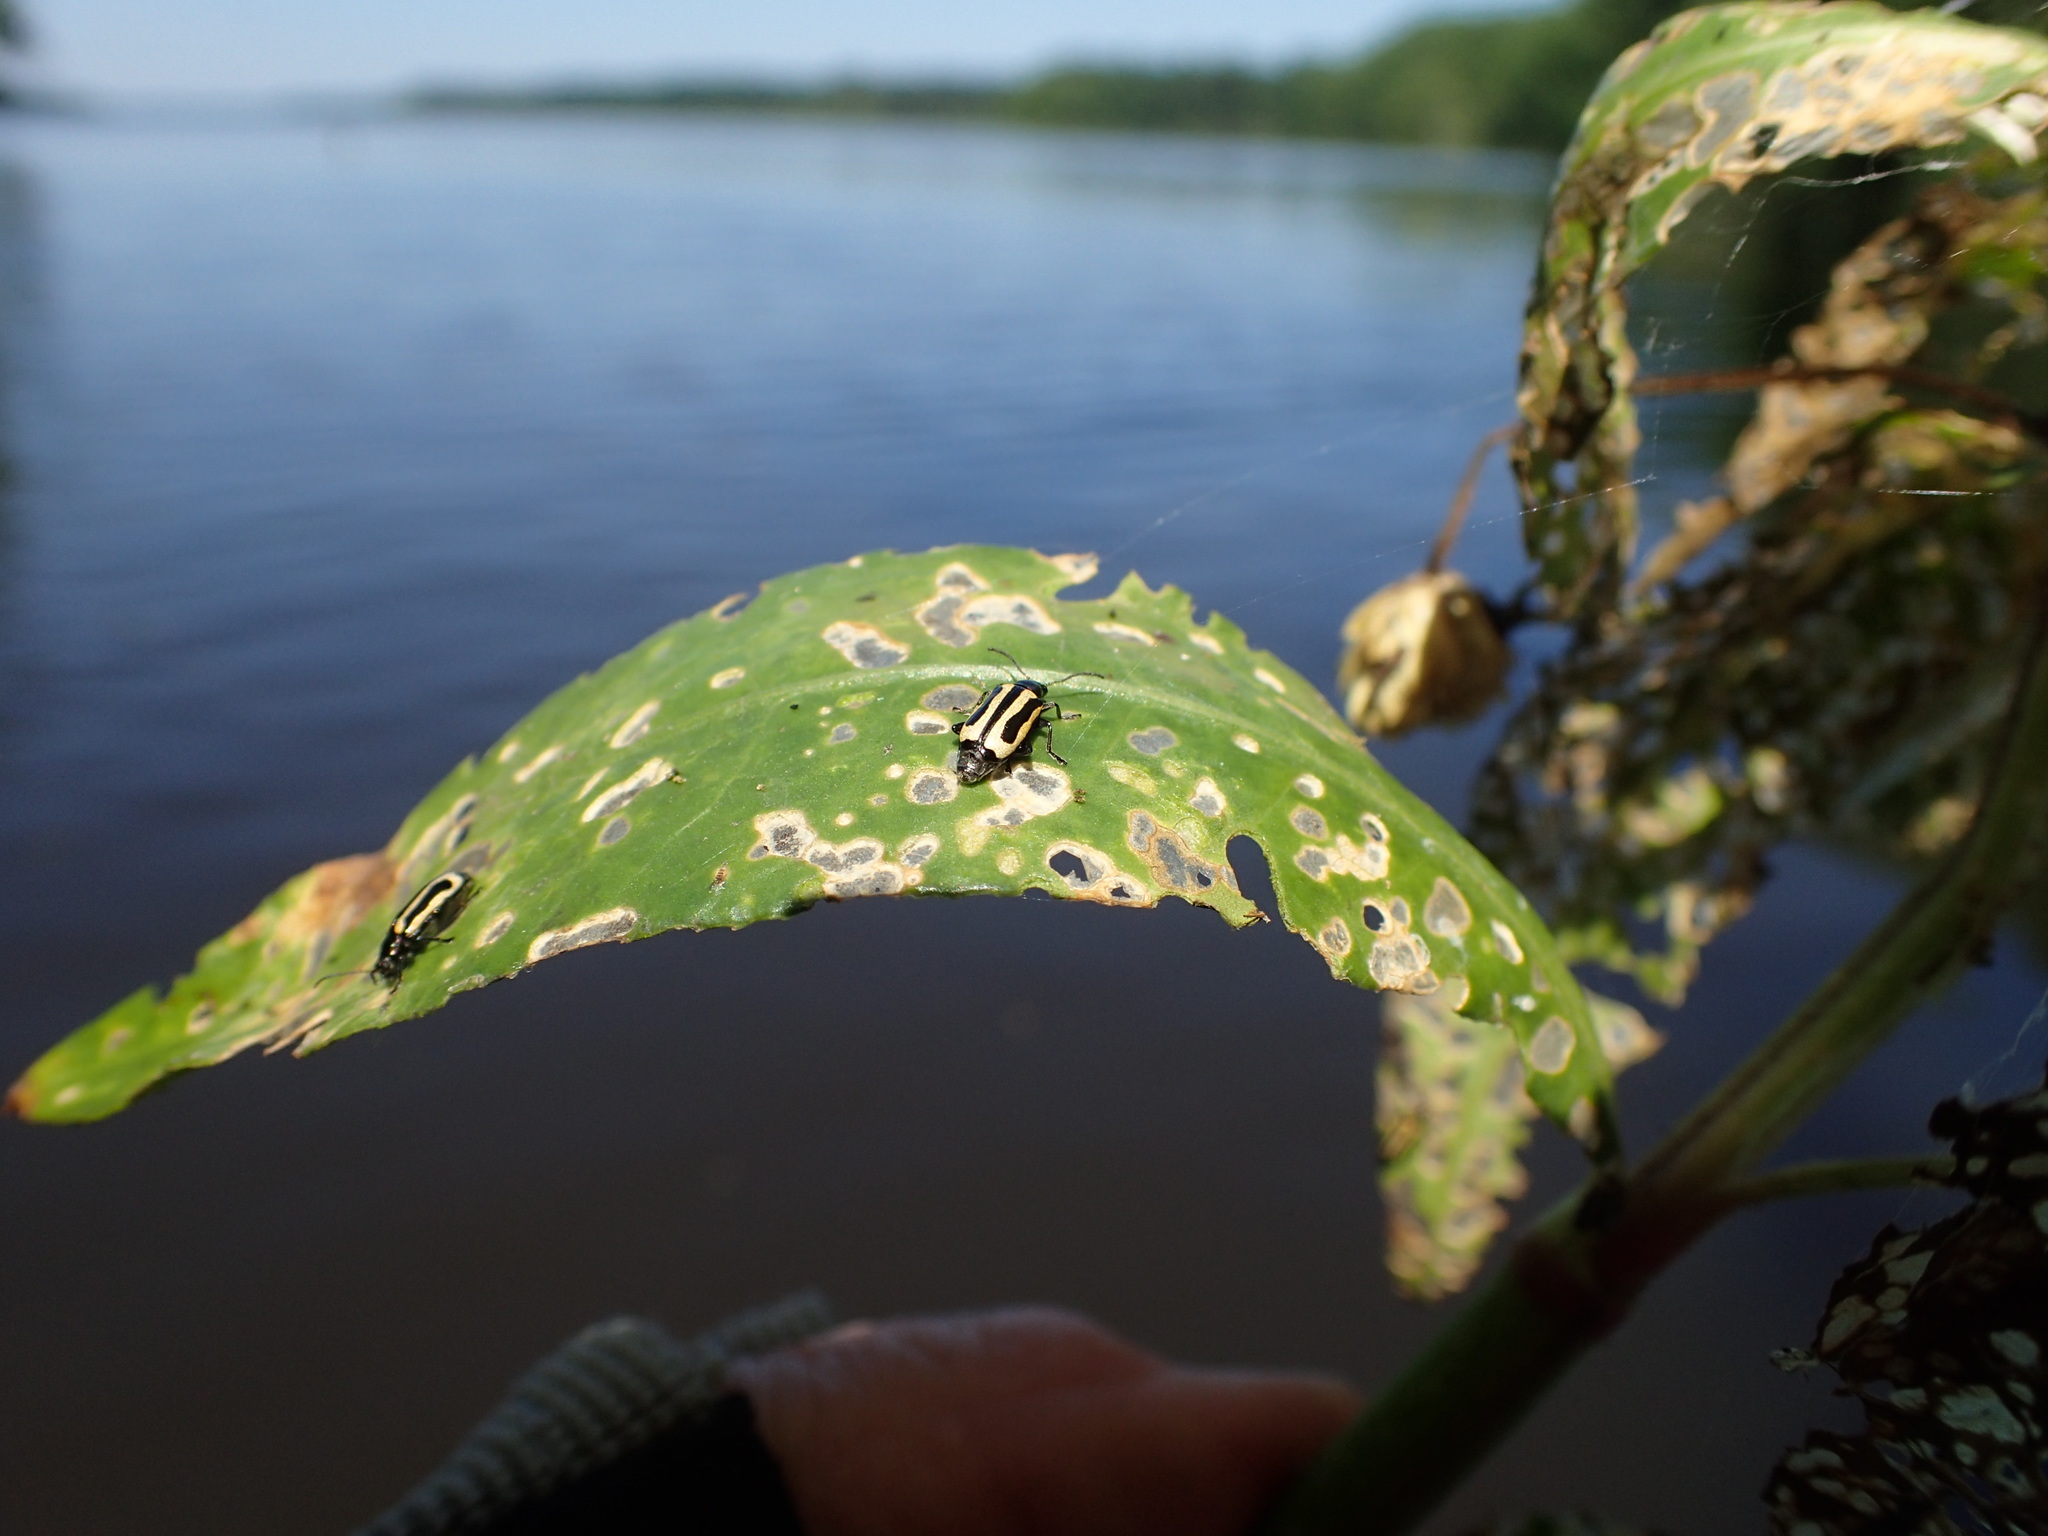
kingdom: Animalia
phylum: Arthropoda
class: Insecta
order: Coleoptera
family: Chrysomelidae
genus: Agasicles
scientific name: Agasicles hygrophila
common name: Alligatorweed flea beetle
